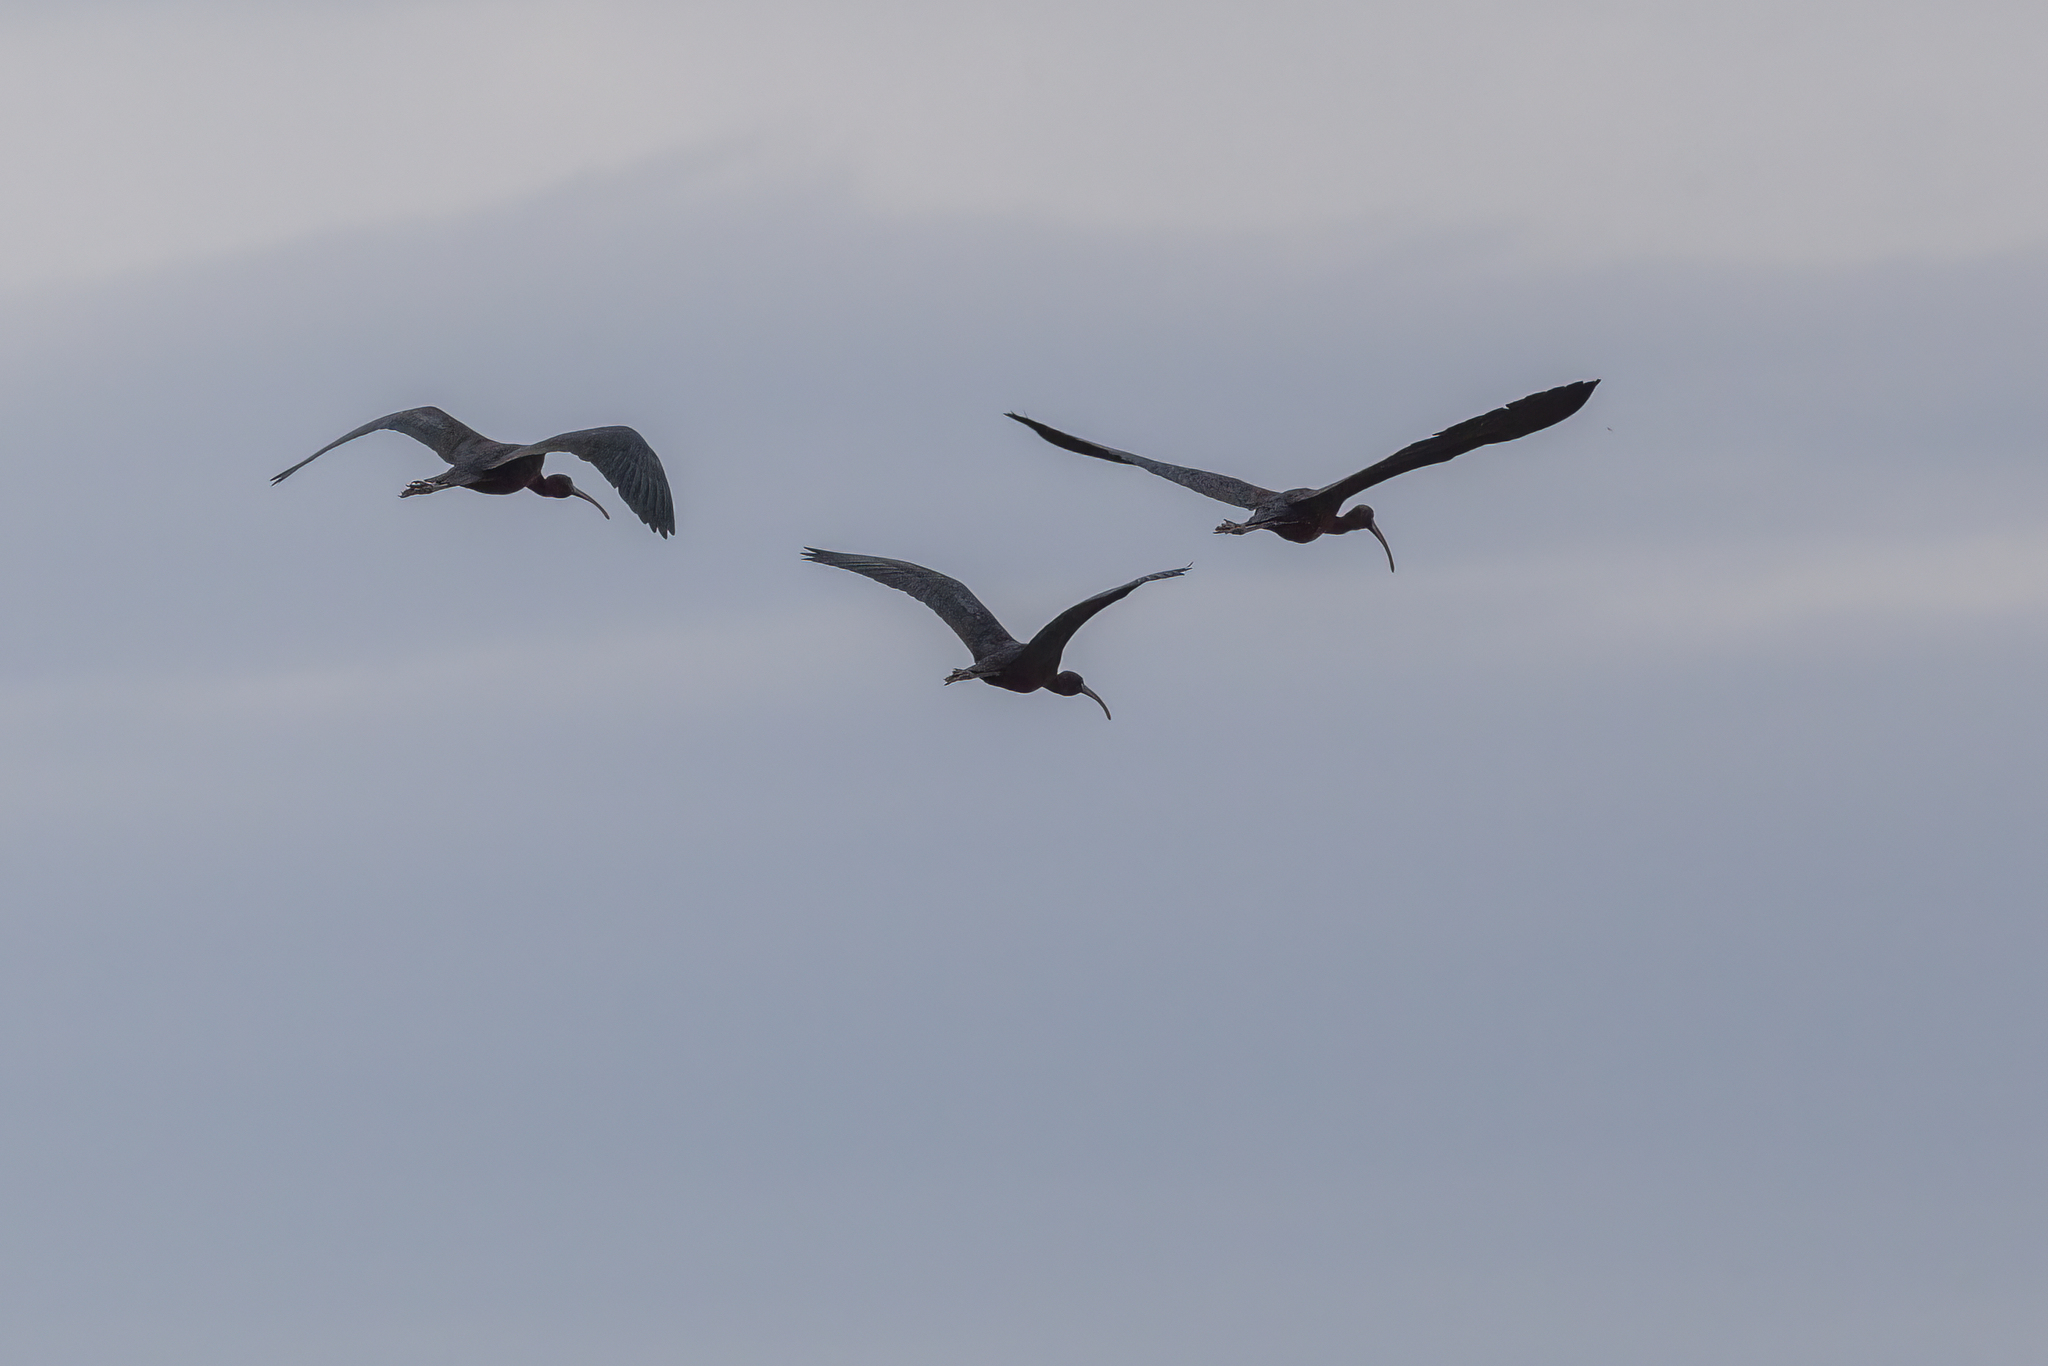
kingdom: Animalia
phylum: Chordata
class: Aves
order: Pelecaniformes
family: Threskiornithidae
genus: Plegadis
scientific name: Plegadis falcinellus
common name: Glossy ibis
